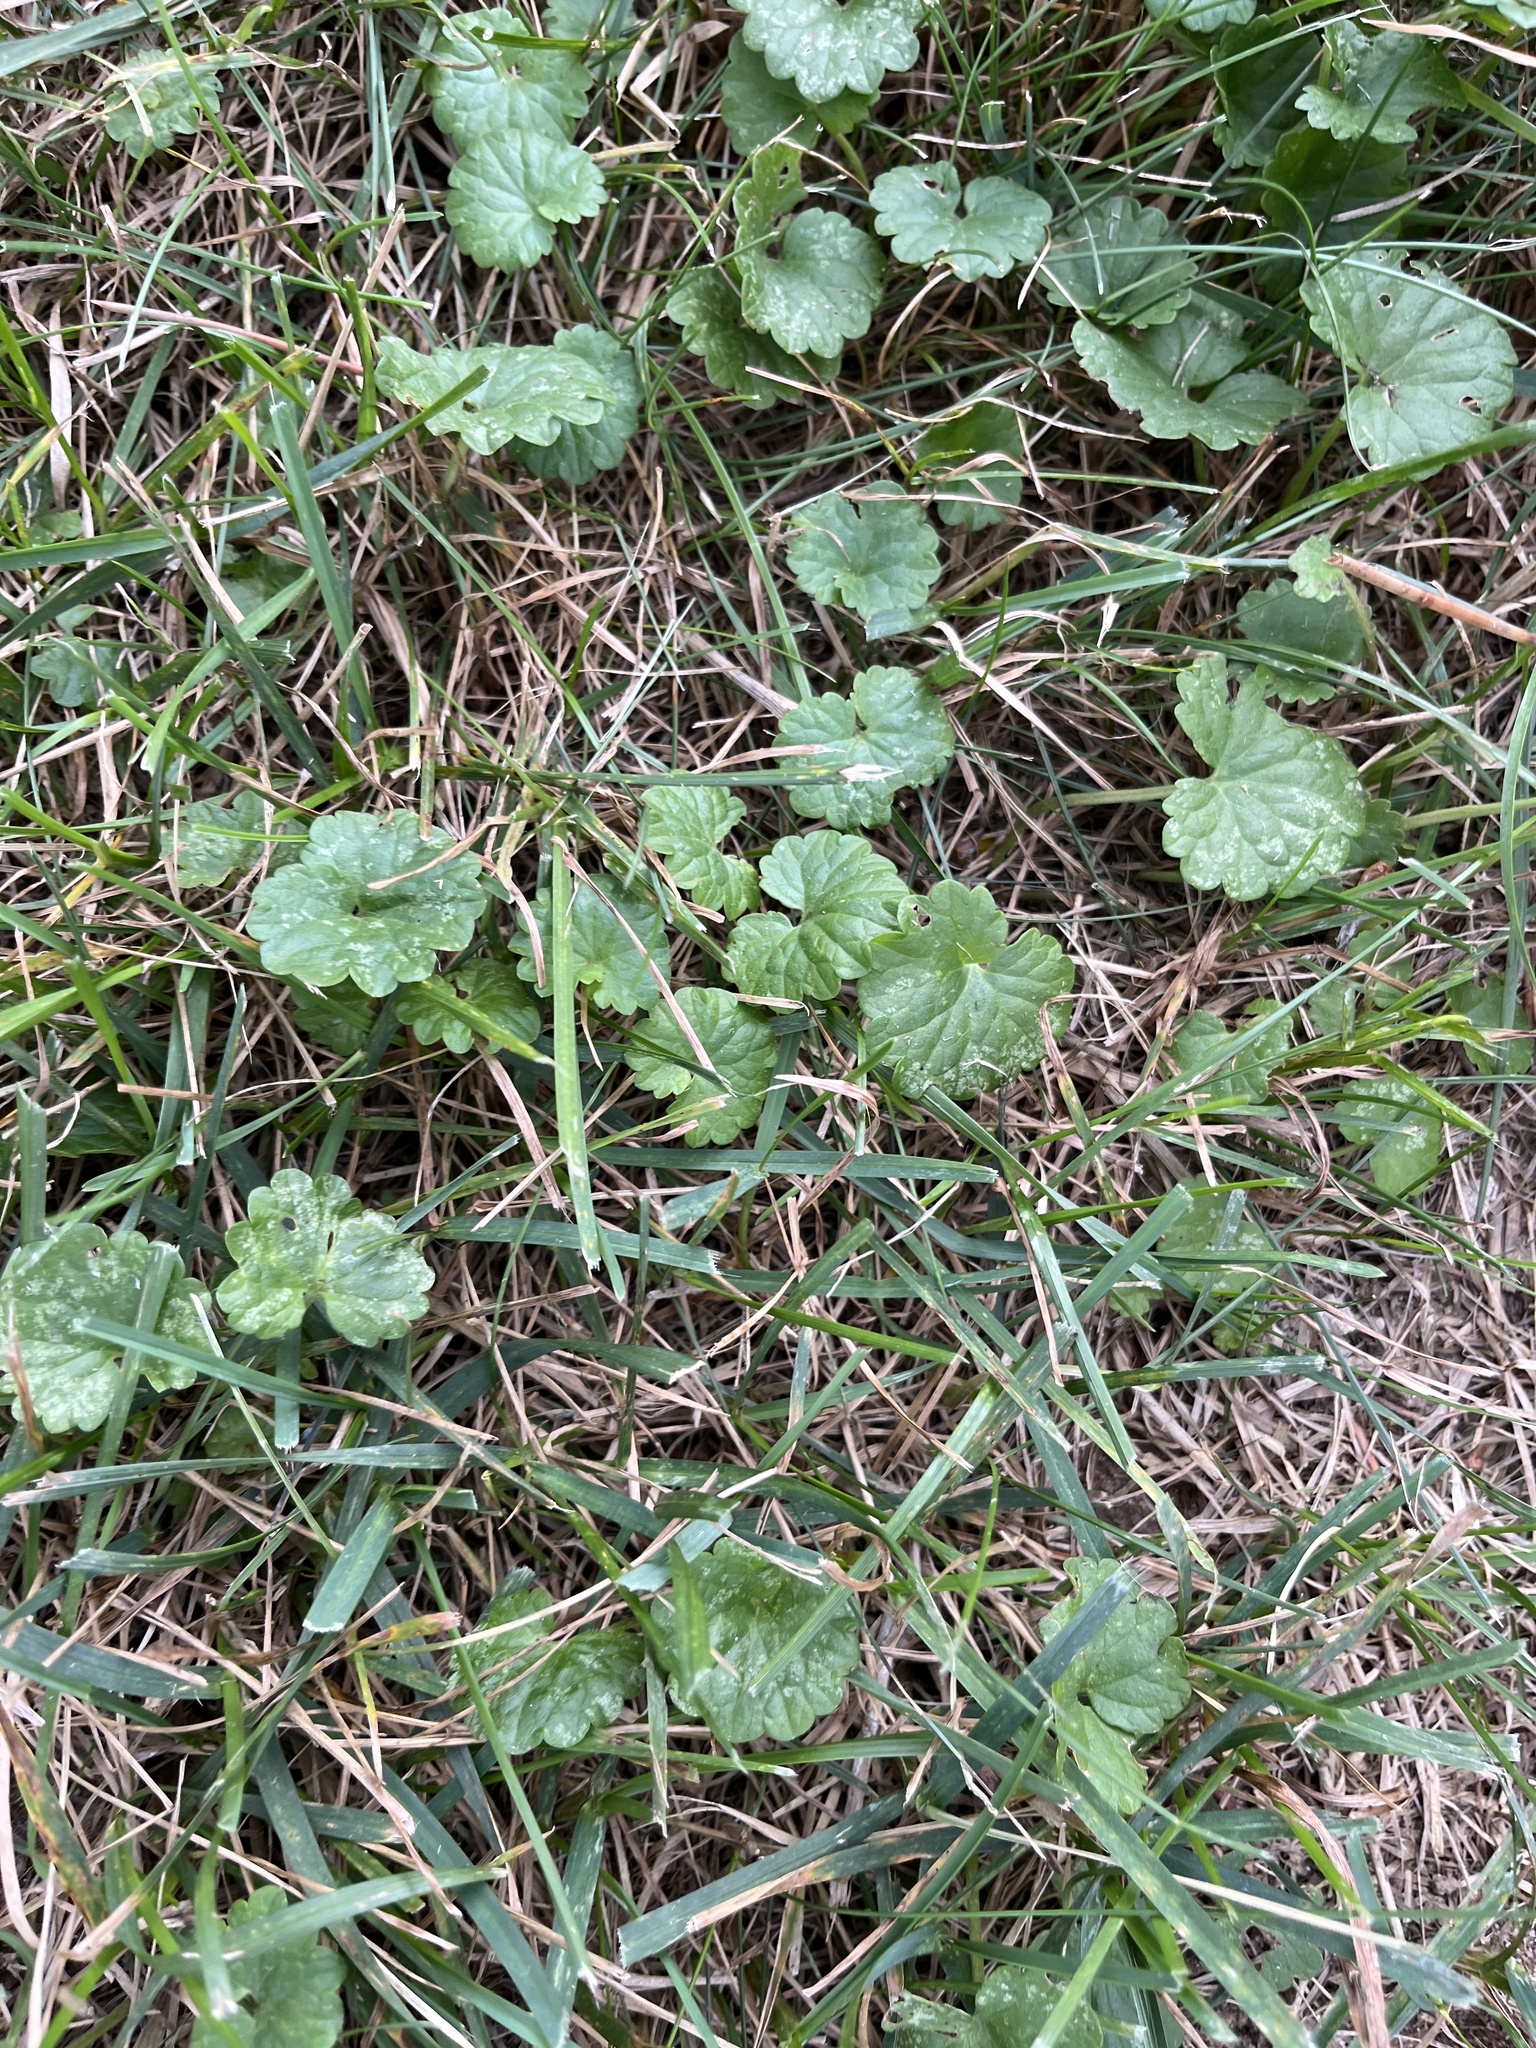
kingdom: Plantae
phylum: Tracheophyta
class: Magnoliopsida
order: Lamiales
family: Lamiaceae
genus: Glechoma
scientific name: Glechoma hederacea
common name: Ground ivy
